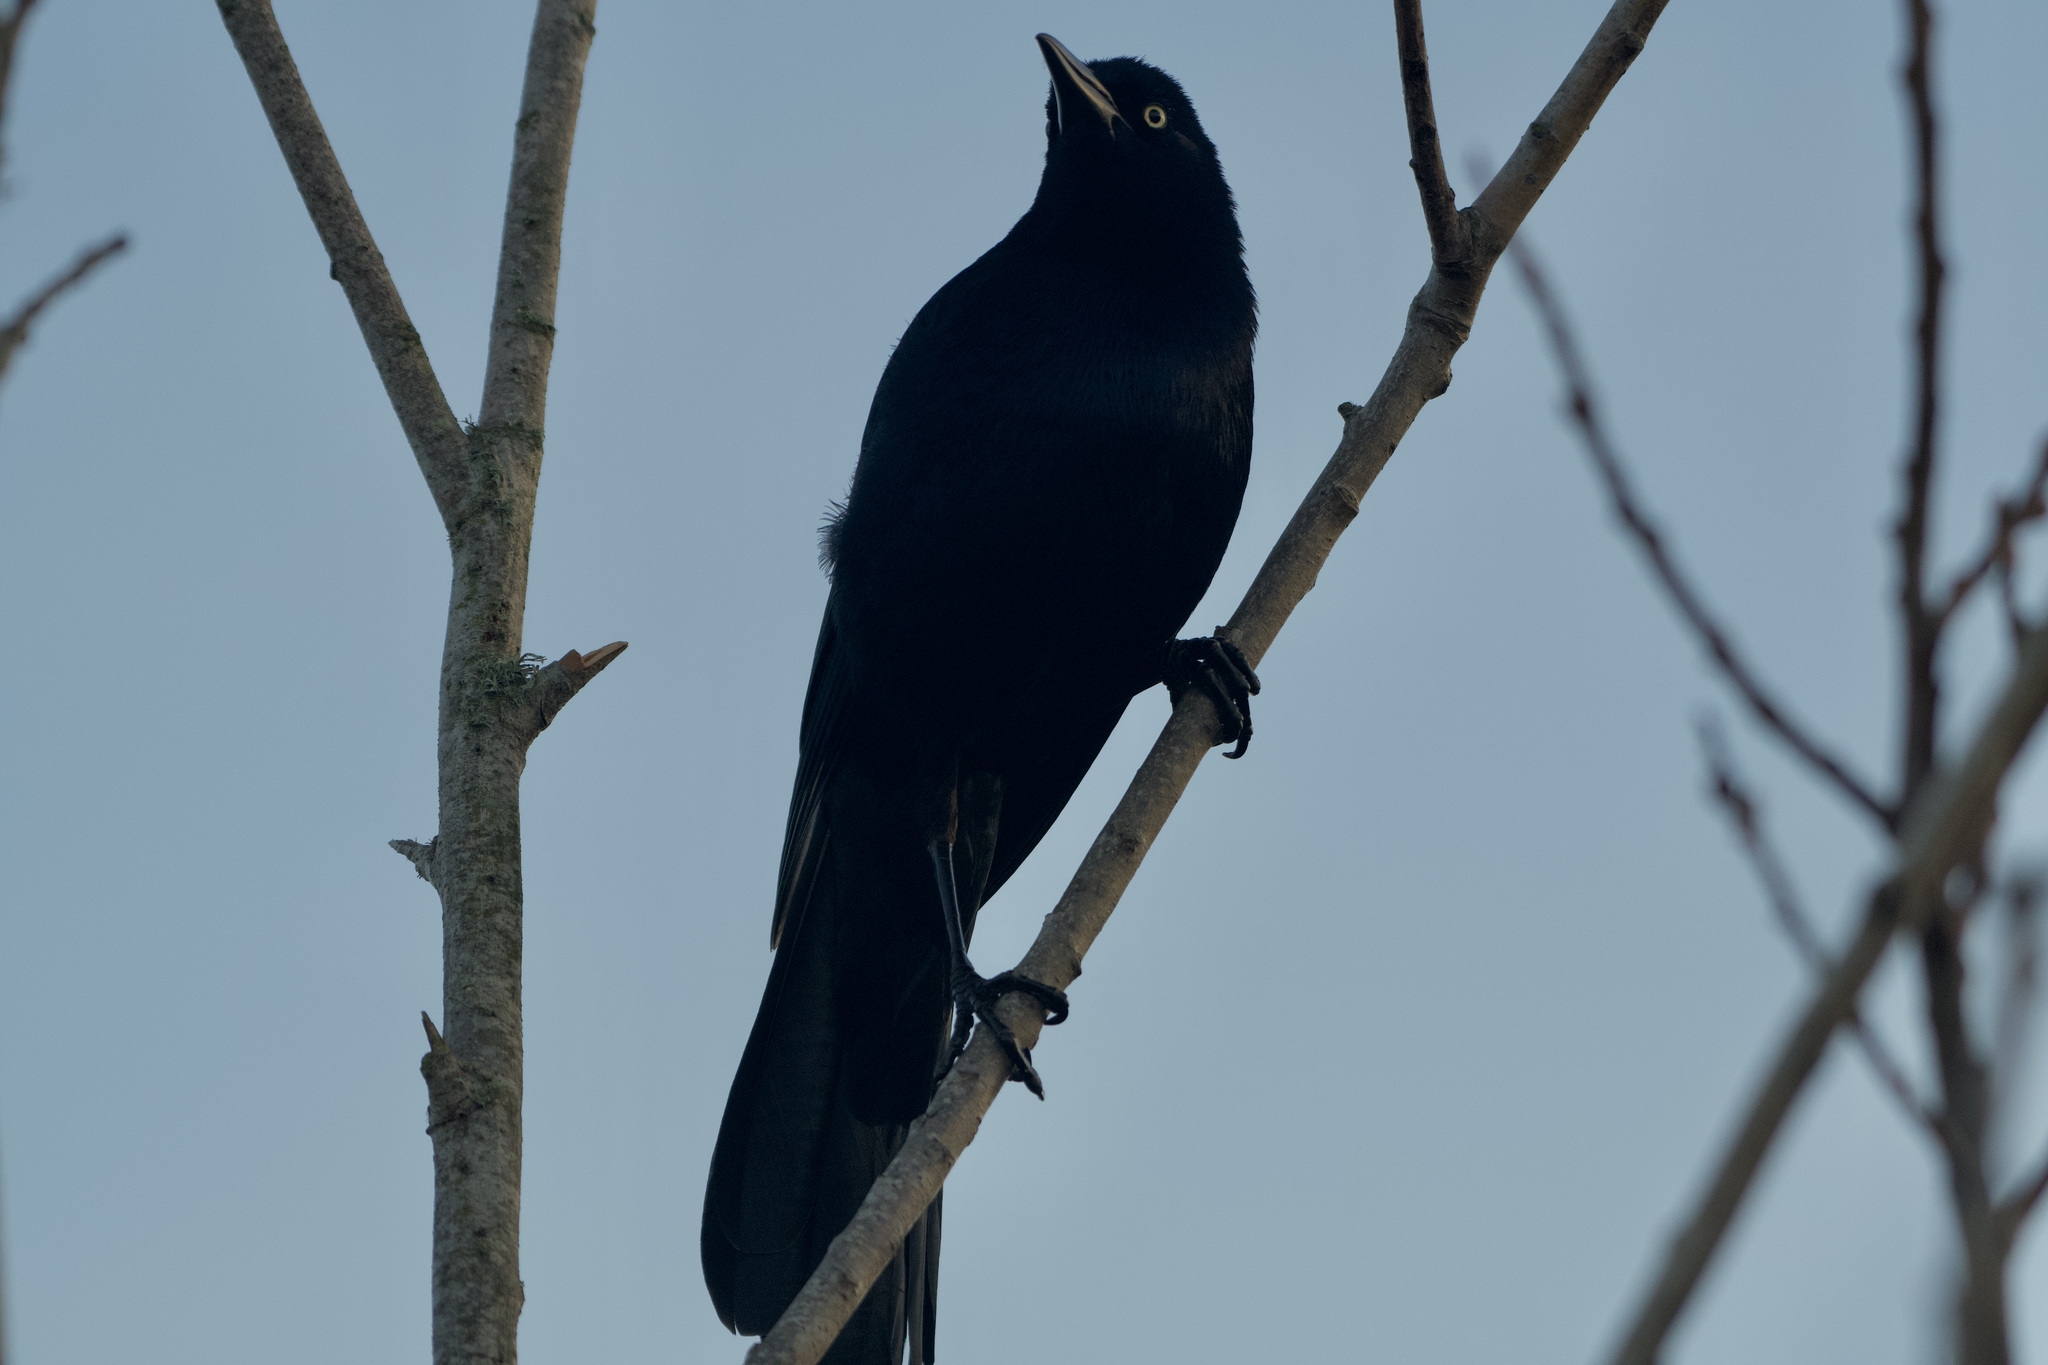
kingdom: Animalia
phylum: Chordata
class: Aves
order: Passeriformes
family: Icteridae
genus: Quiscalus
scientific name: Quiscalus mexicanus
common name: Great-tailed grackle
